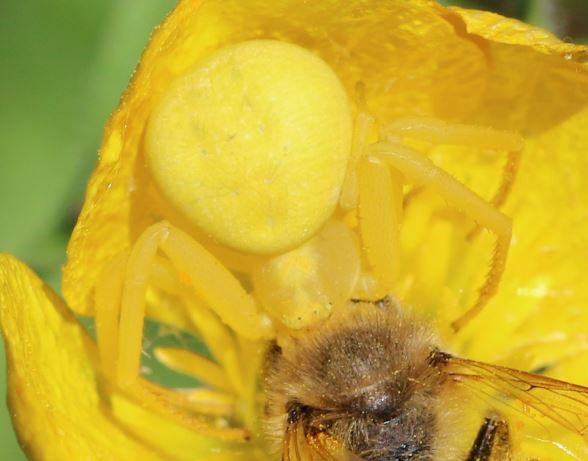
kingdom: Animalia
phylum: Arthropoda
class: Arachnida
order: Araneae
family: Thomisidae
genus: Misumena
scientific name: Misumena vatia
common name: Goldenrod crab spider
